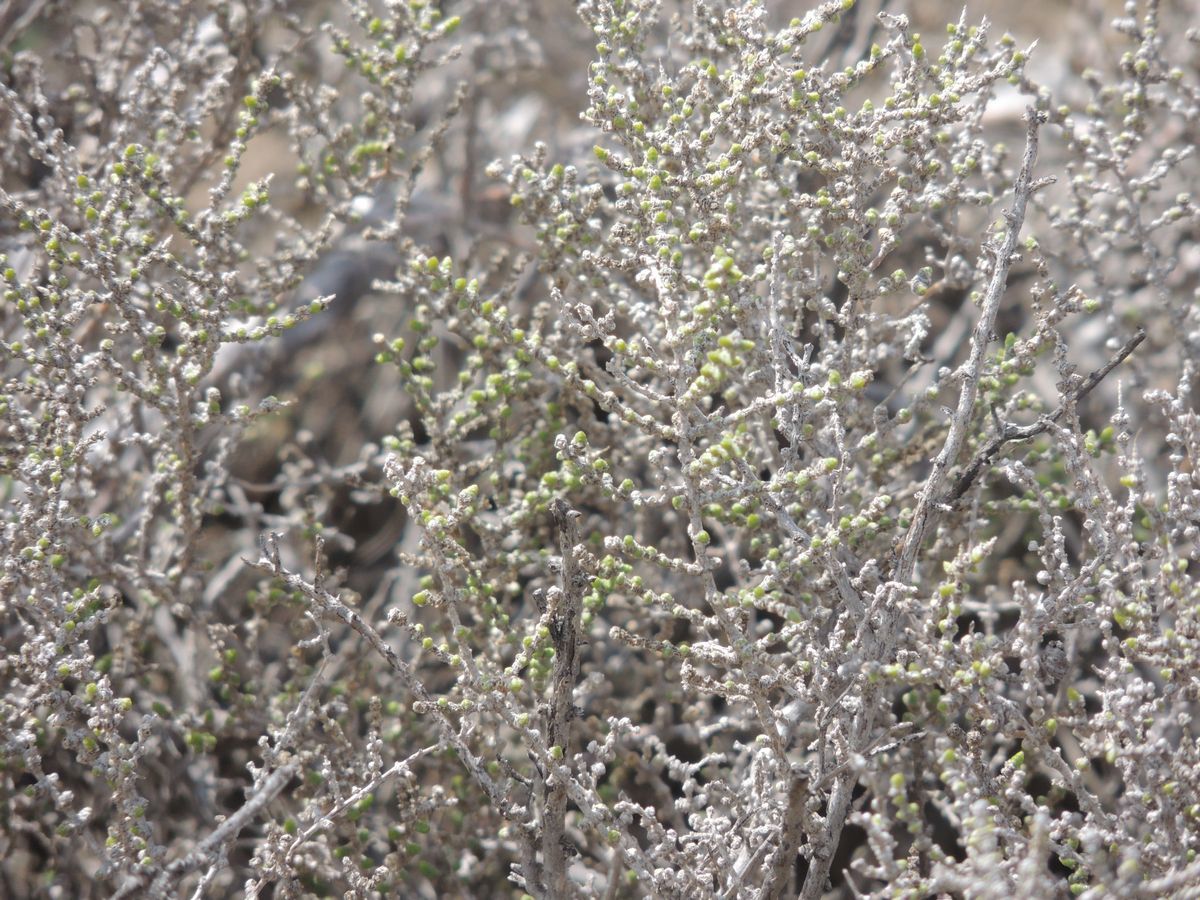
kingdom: Plantae
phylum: Tracheophyta
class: Magnoliopsida
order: Caryophyllales
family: Amaranthaceae
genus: Halocnemum
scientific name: Halocnemum strobilaceum
